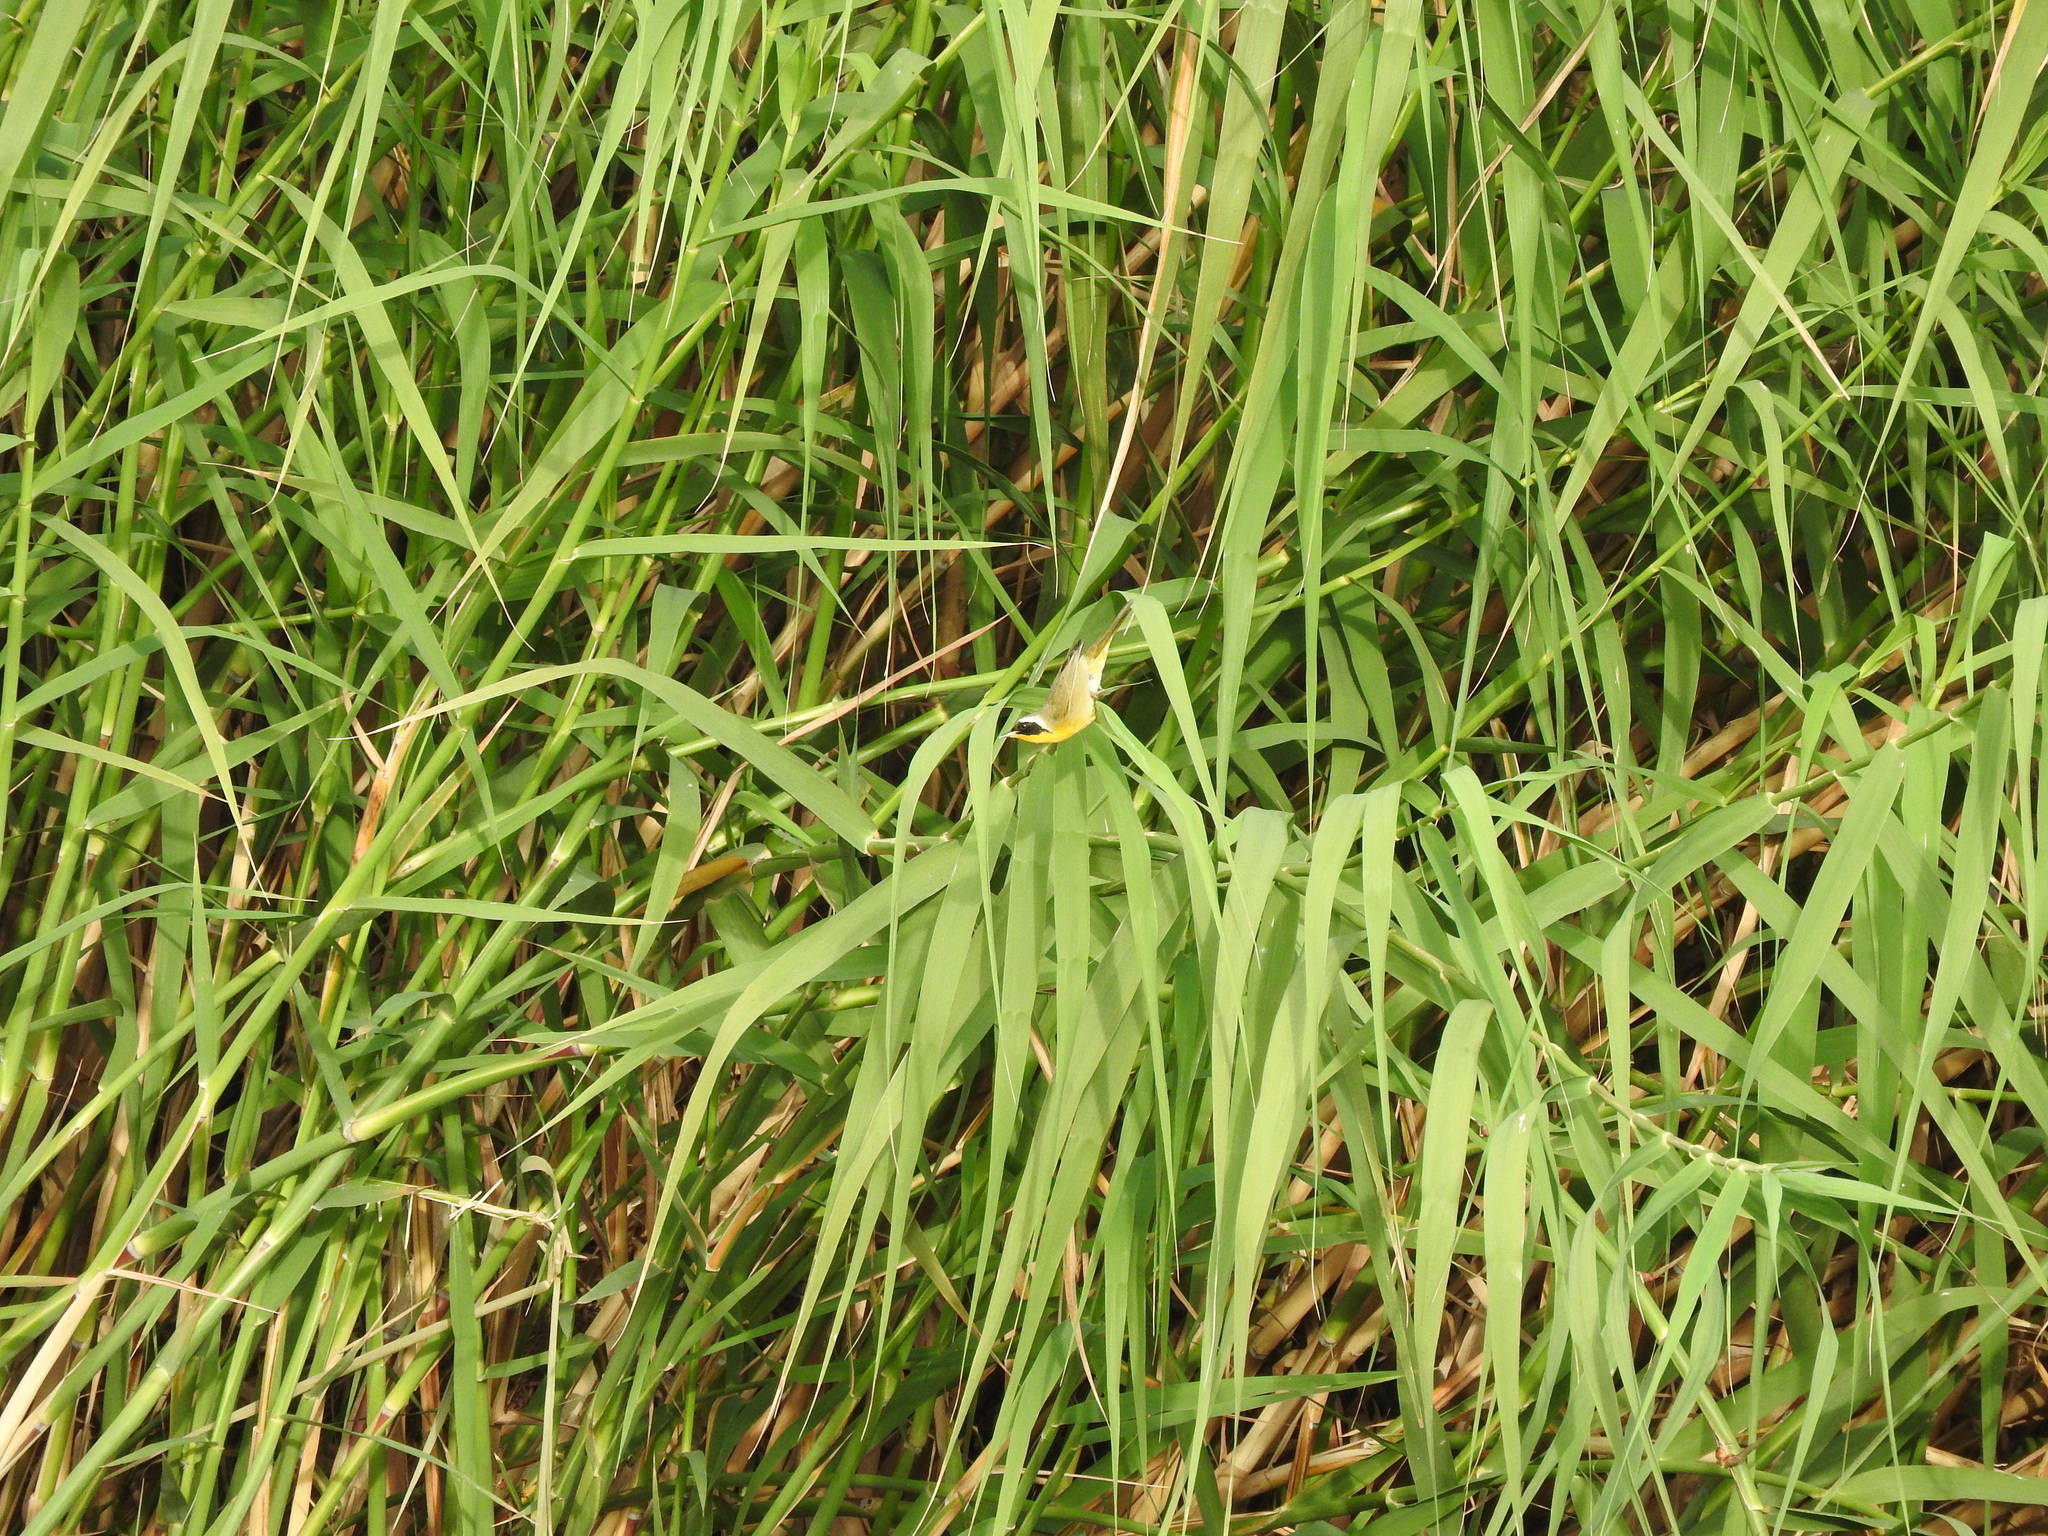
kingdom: Animalia
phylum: Chordata
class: Aves
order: Passeriformes
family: Parulidae
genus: Geothlypis
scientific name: Geothlypis trichas
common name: Common yellowthroat
